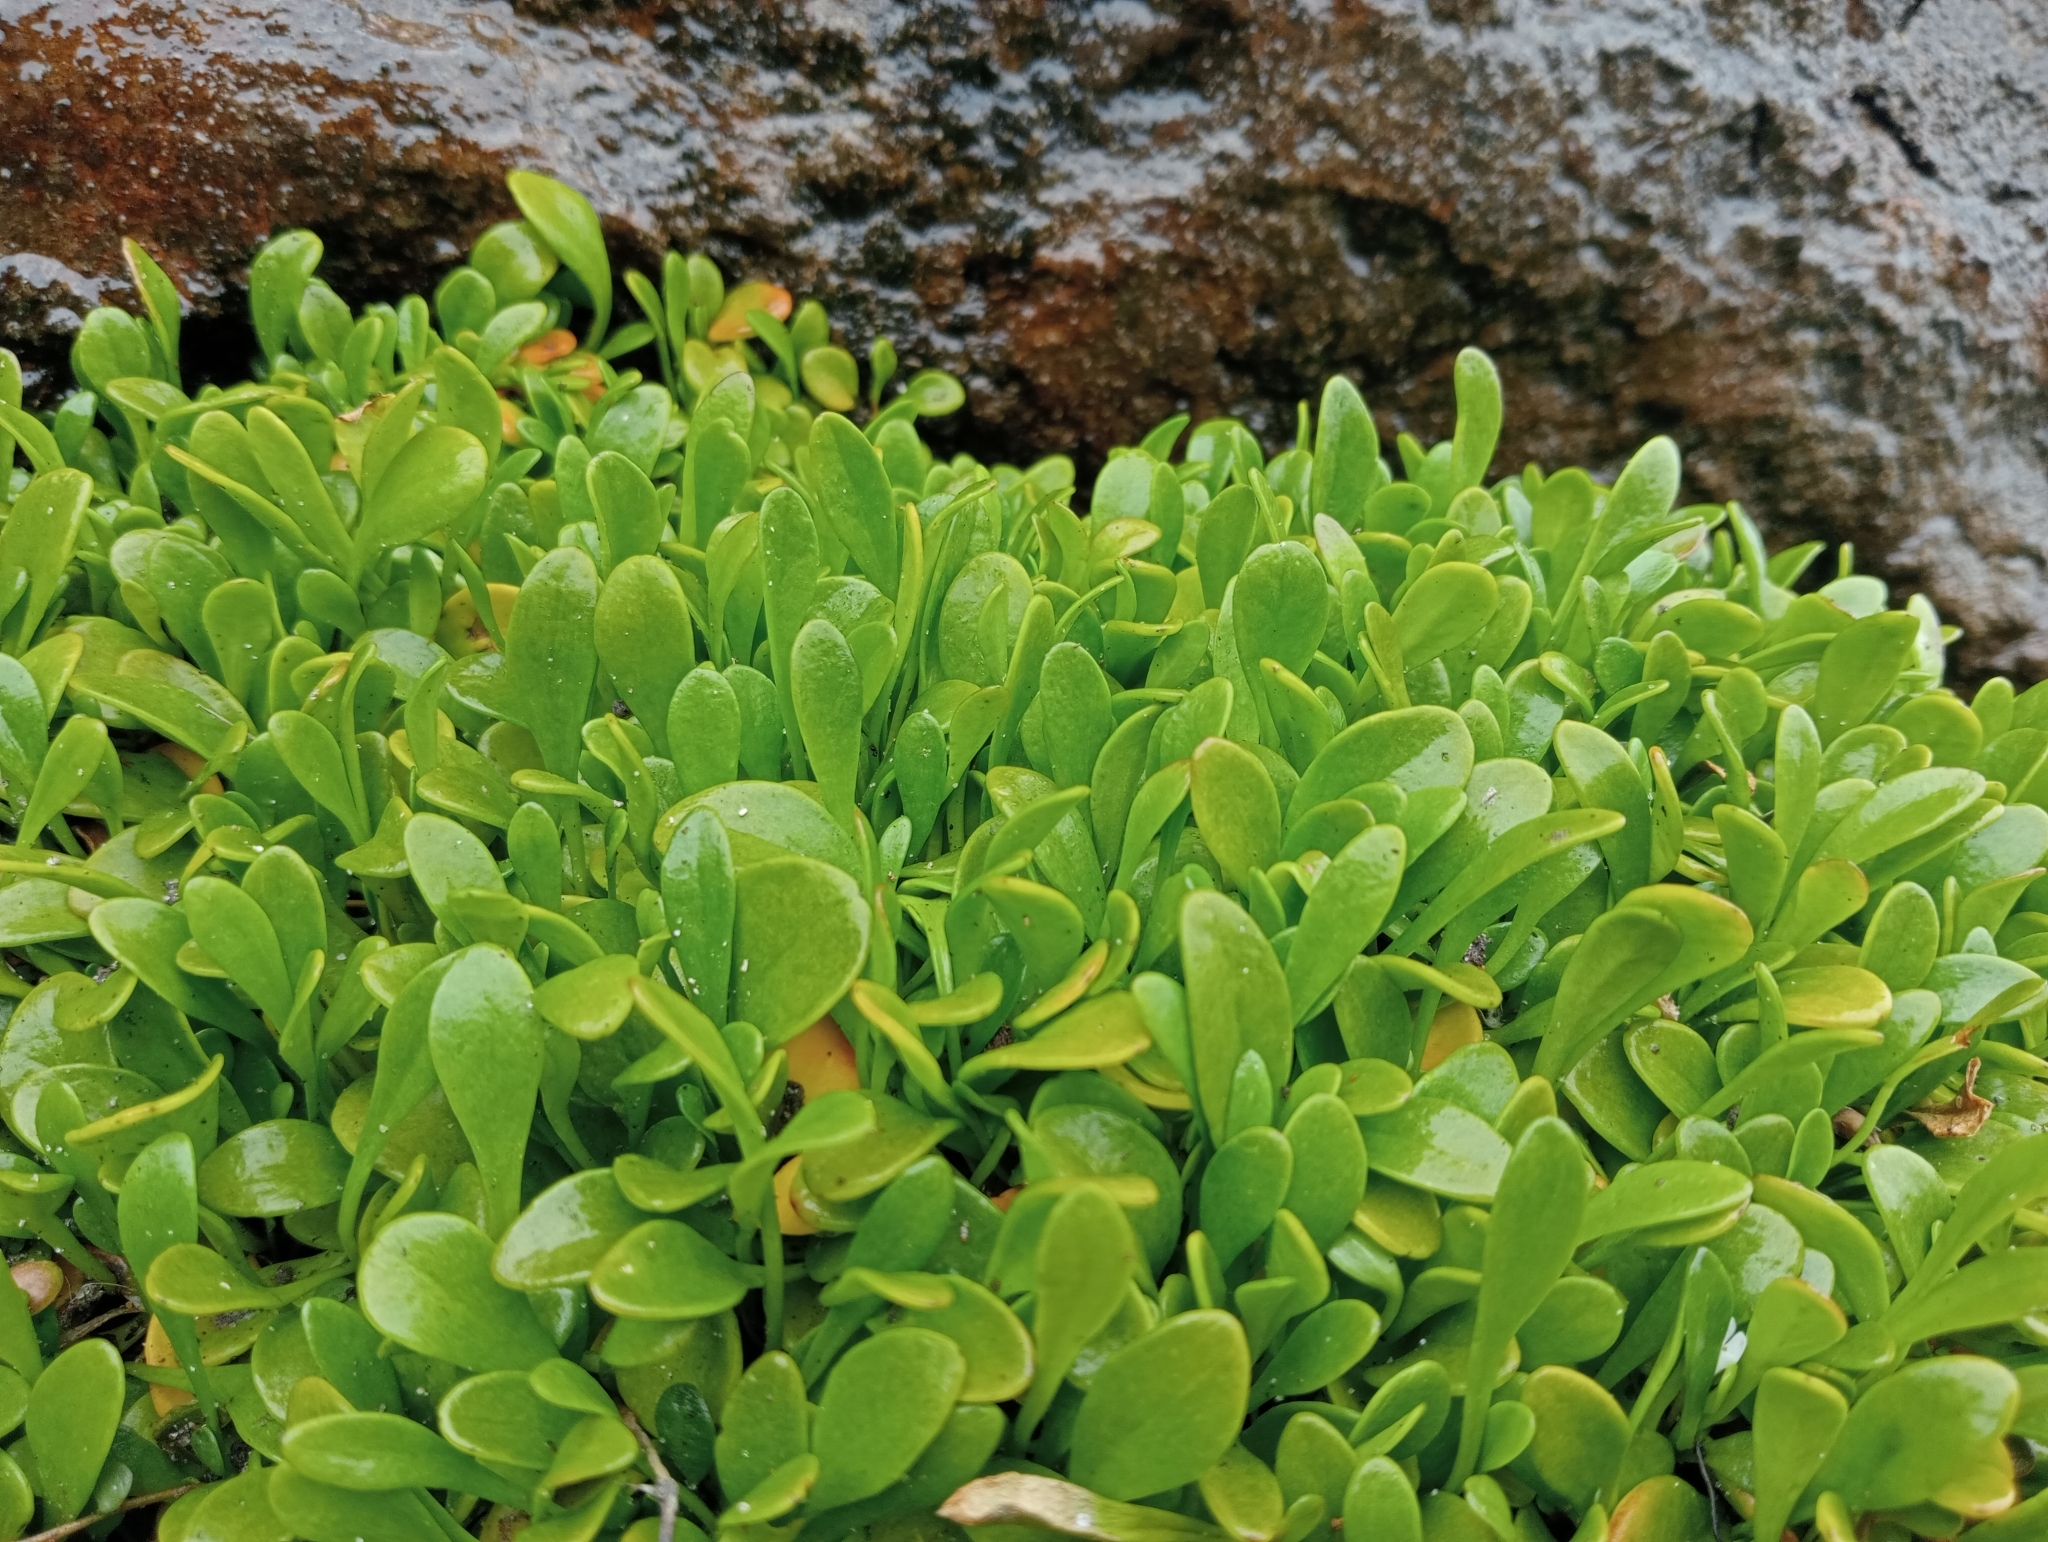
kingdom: Plantae
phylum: Tracheophyta
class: Magnoliopsida
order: Asterales
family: Goodeniaceae
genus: Goodenia
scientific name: Goodenia radicans
